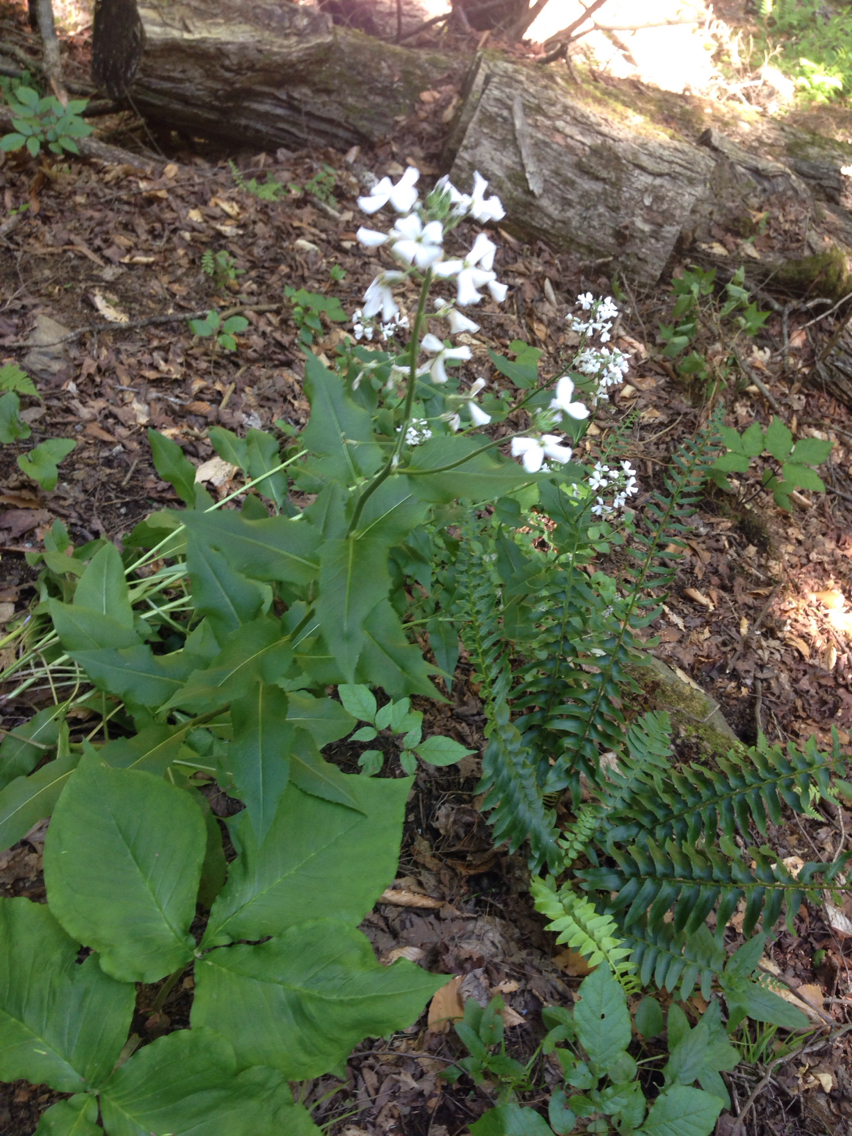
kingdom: Plantae
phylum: Tracheophyta
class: Magnoliopsida
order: Brassicales
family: Brassicaceae
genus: Hesperis
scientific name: Hesperis matronalis
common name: Dame's-violet
